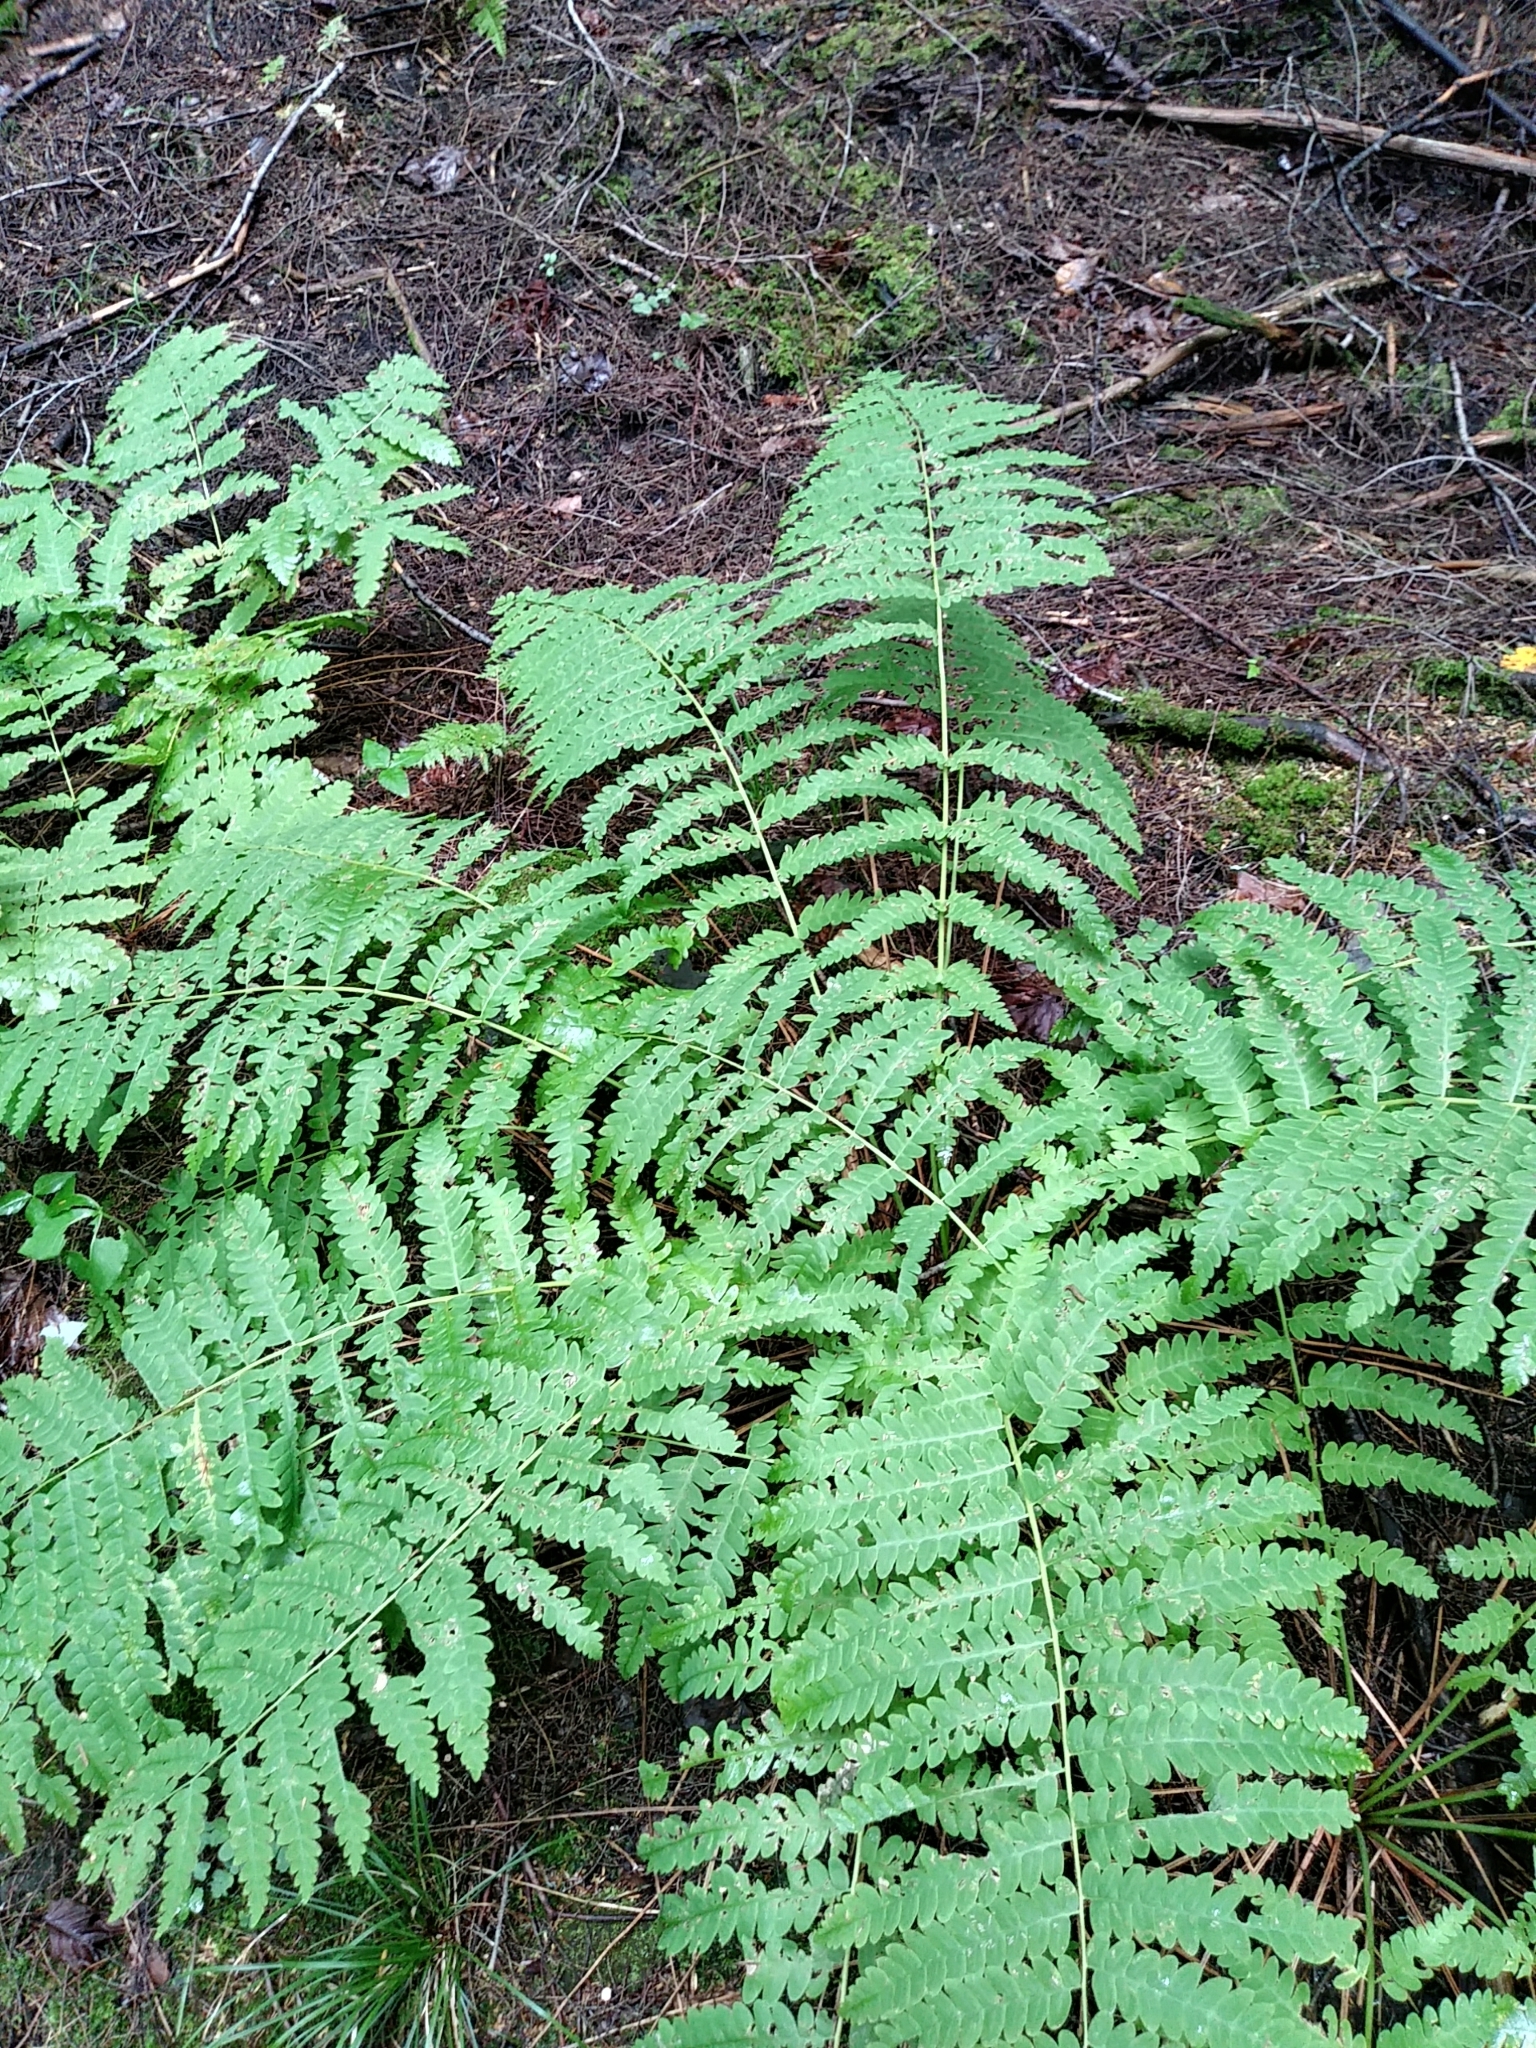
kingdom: Plantae
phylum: Tracheophyta
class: Polypodiopsida
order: Osmundales
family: Osmundaceae
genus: Claytosmunda
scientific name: Claytosmunda claytoniana
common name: Clayton's fern
